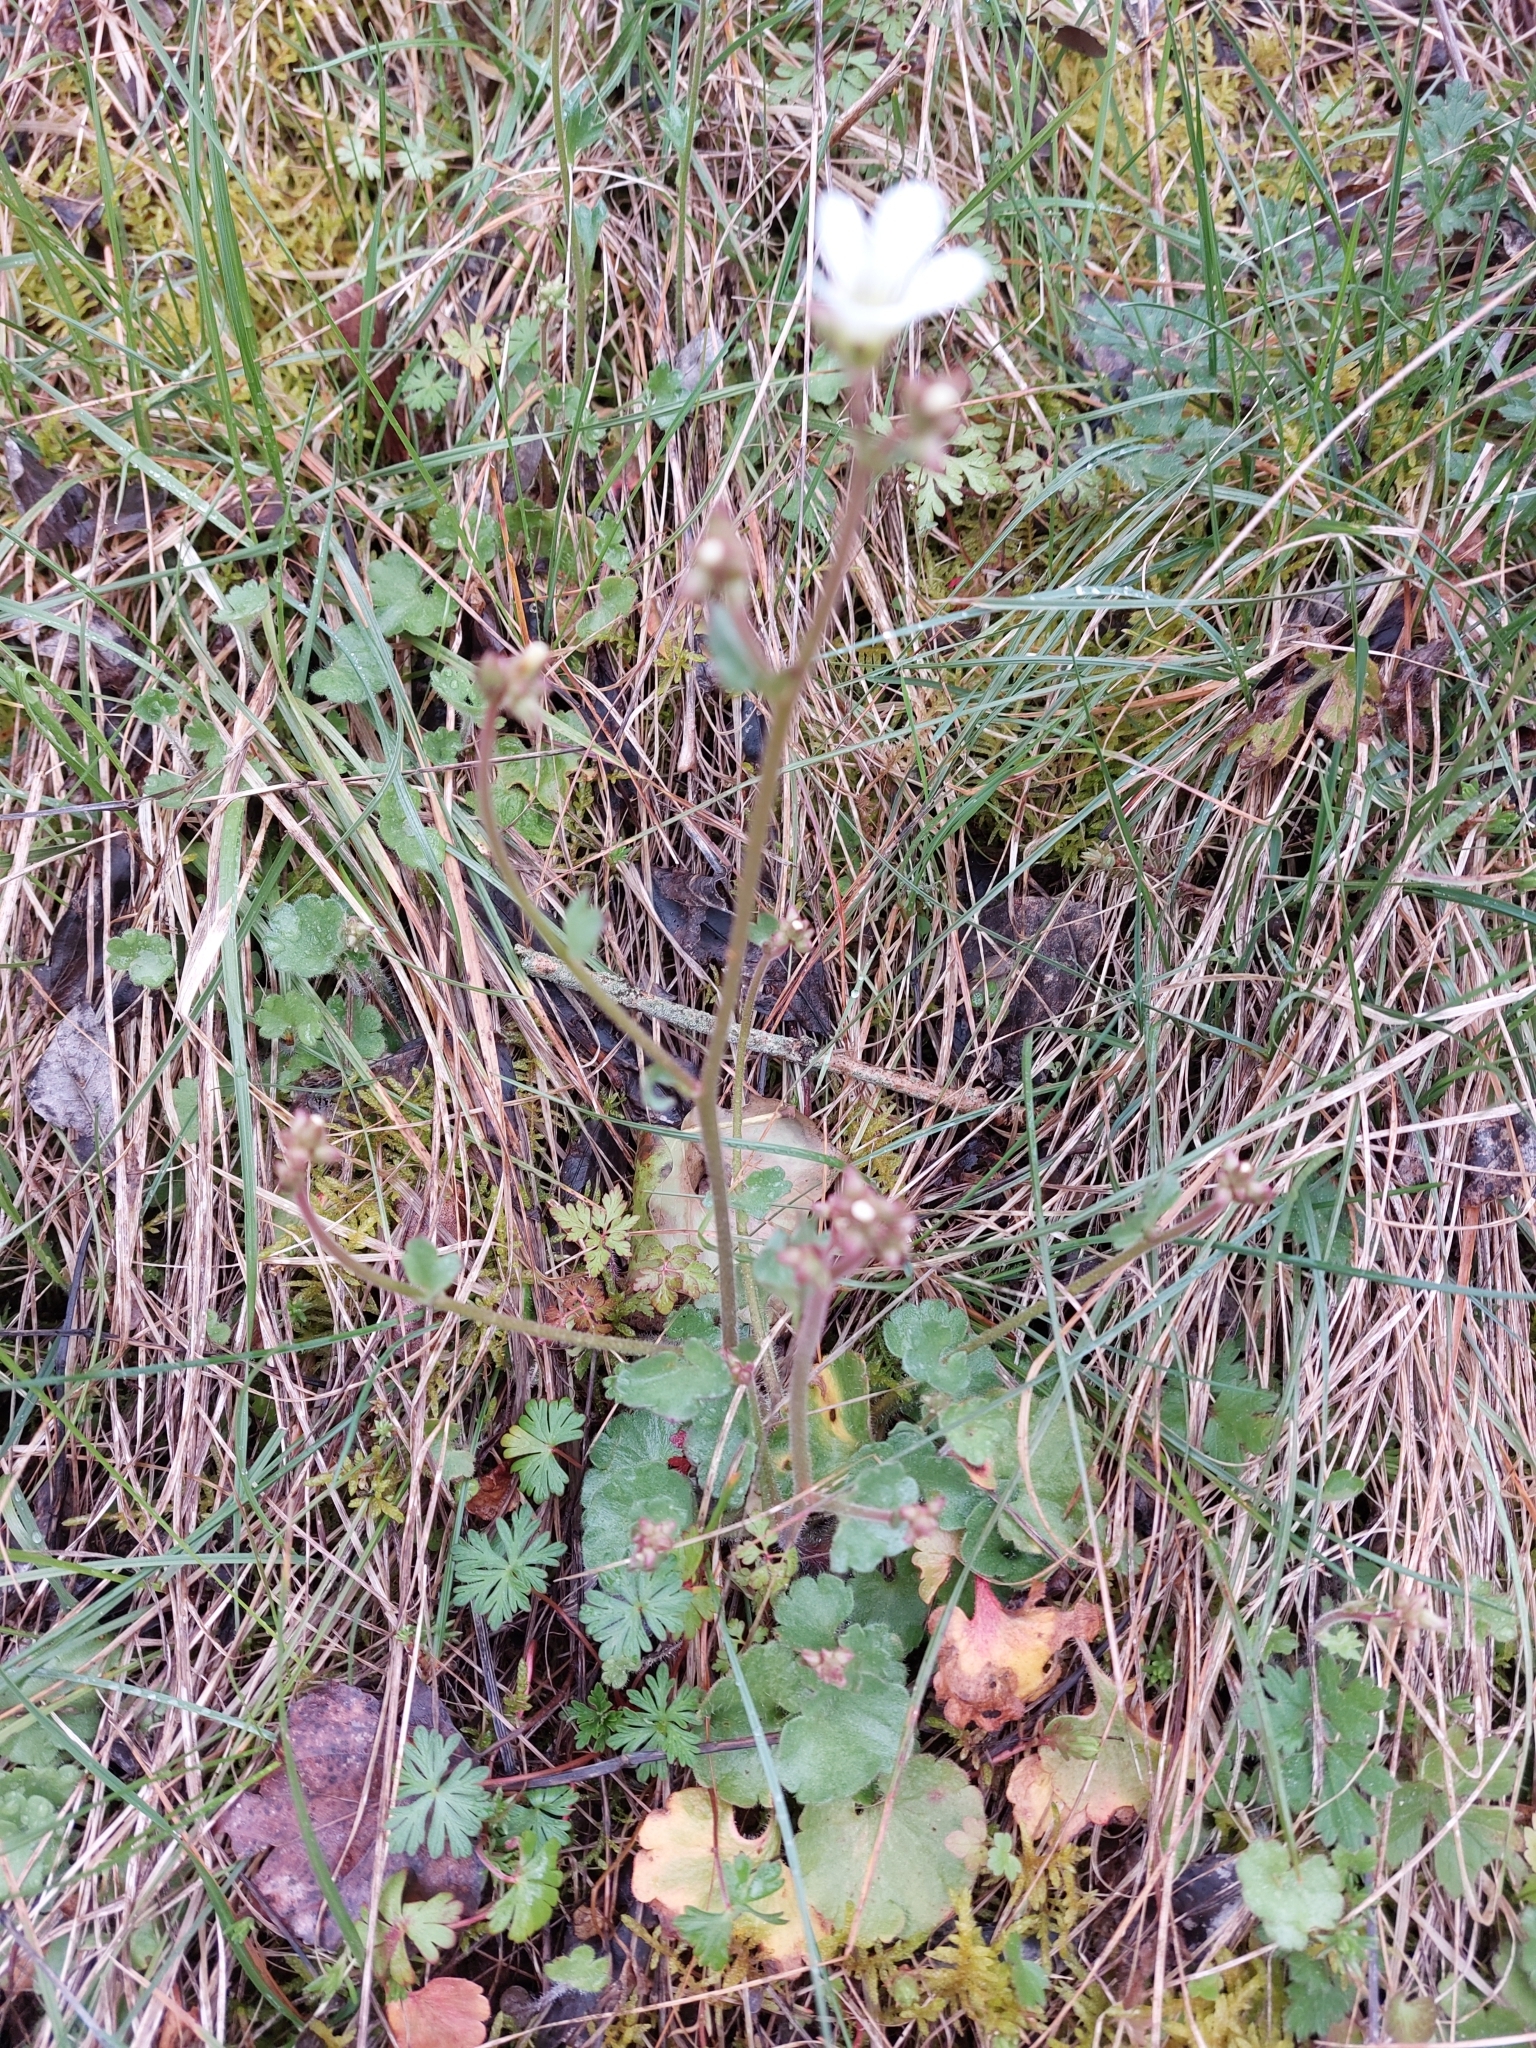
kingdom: Plantae
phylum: Tracheophyta
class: Magnoliopsida
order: Saxifragales
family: Saxifragaceae
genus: Saxifraga
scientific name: Saxifraga granulata
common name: Meadow saxifrage
